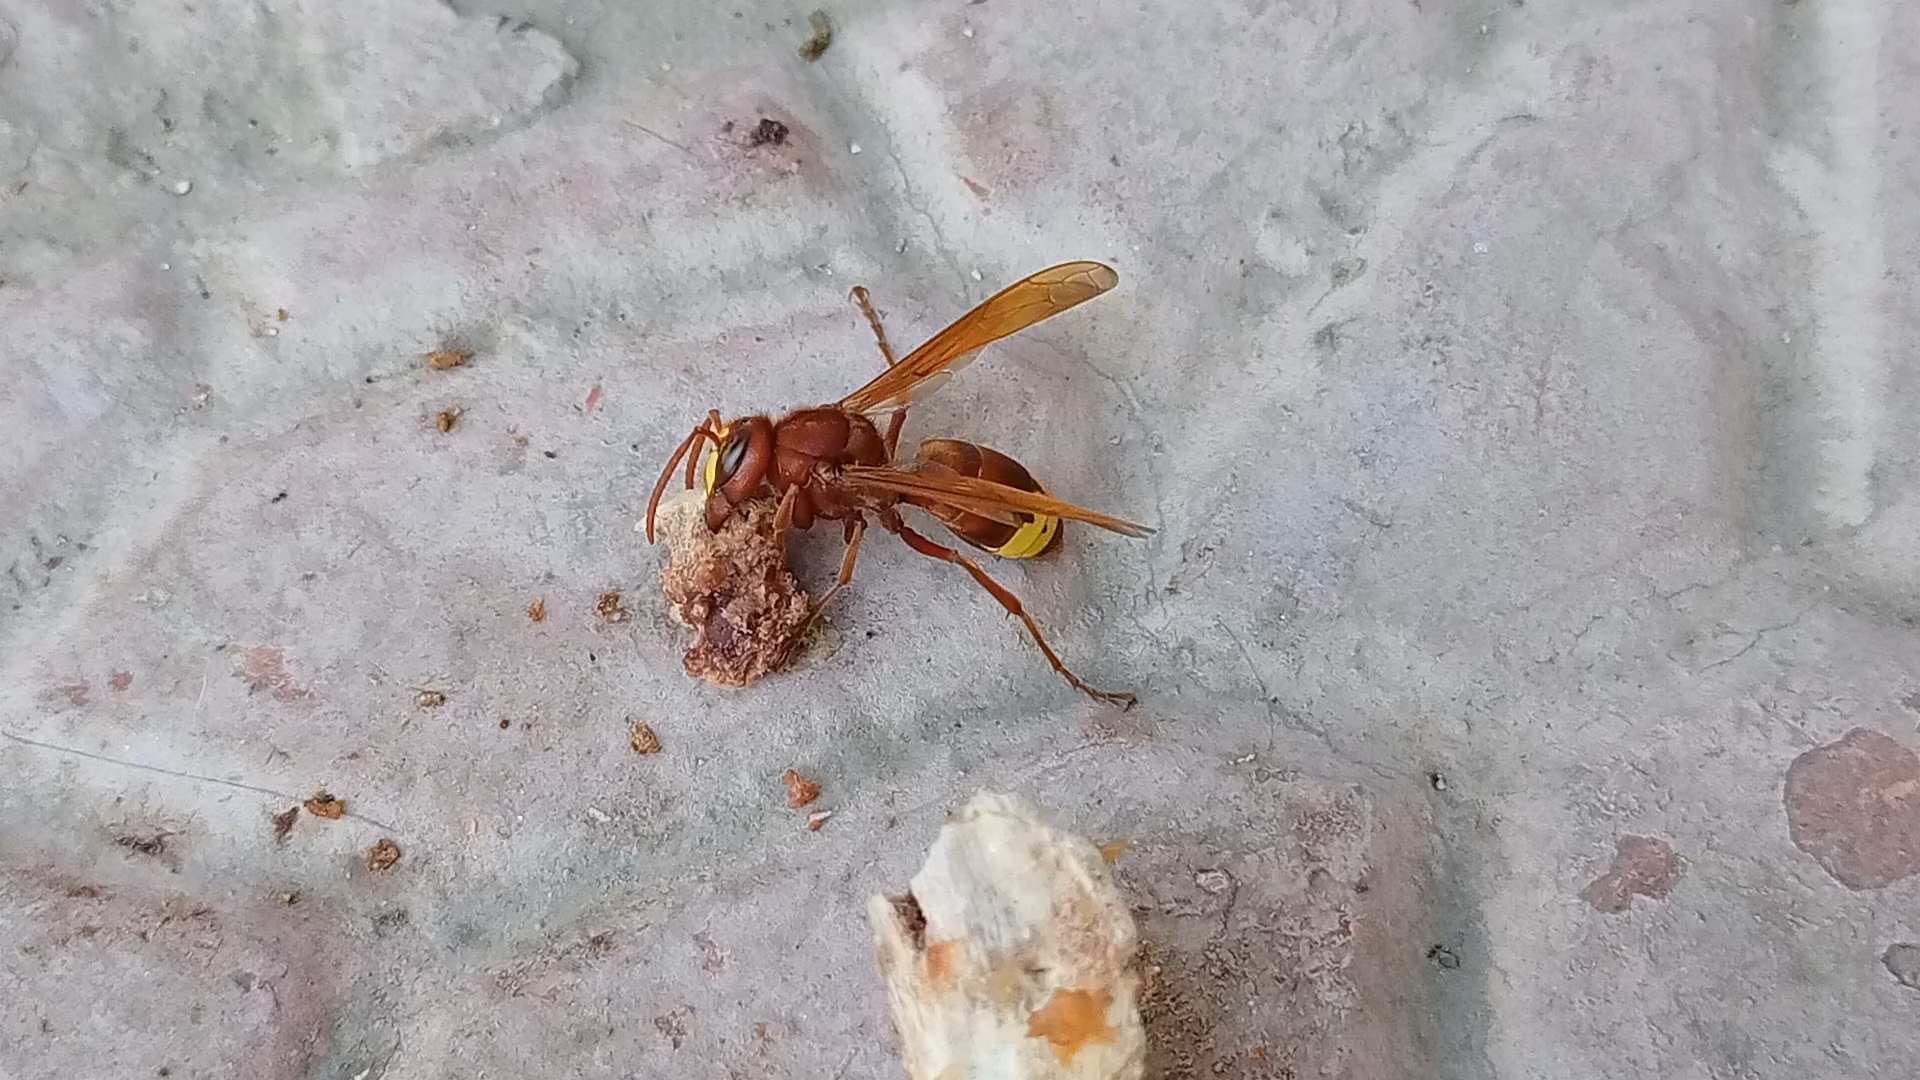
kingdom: Animalia
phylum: Arthropoda
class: Insecta
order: Hymenoptera
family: Vespidae
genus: Vespa
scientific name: Vespa orientalis
